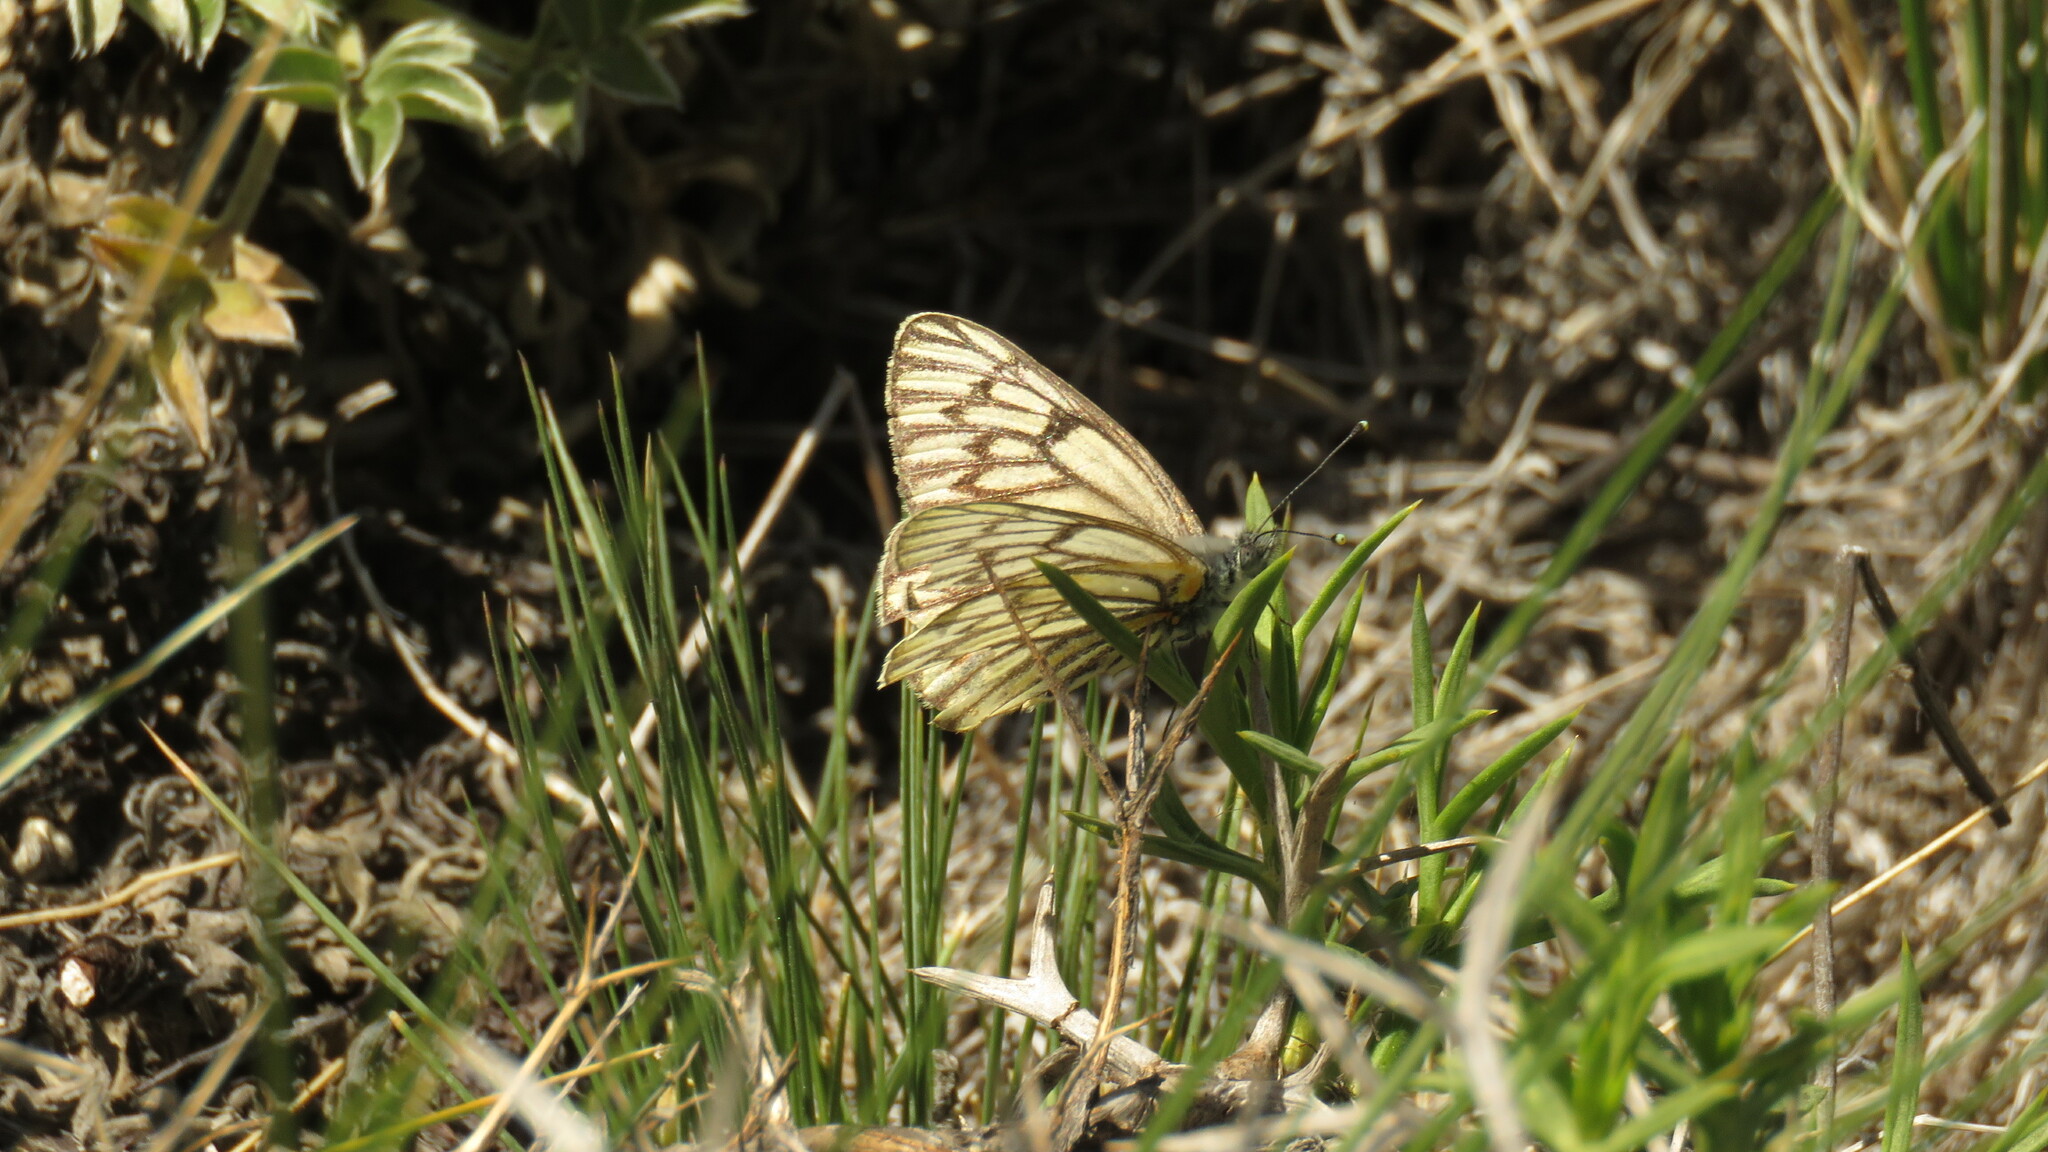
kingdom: Animalia
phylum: Arthropoda
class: Insecta
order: Lepidoptera
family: Pieridae
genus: Tatochila
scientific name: Tatochila theodice
